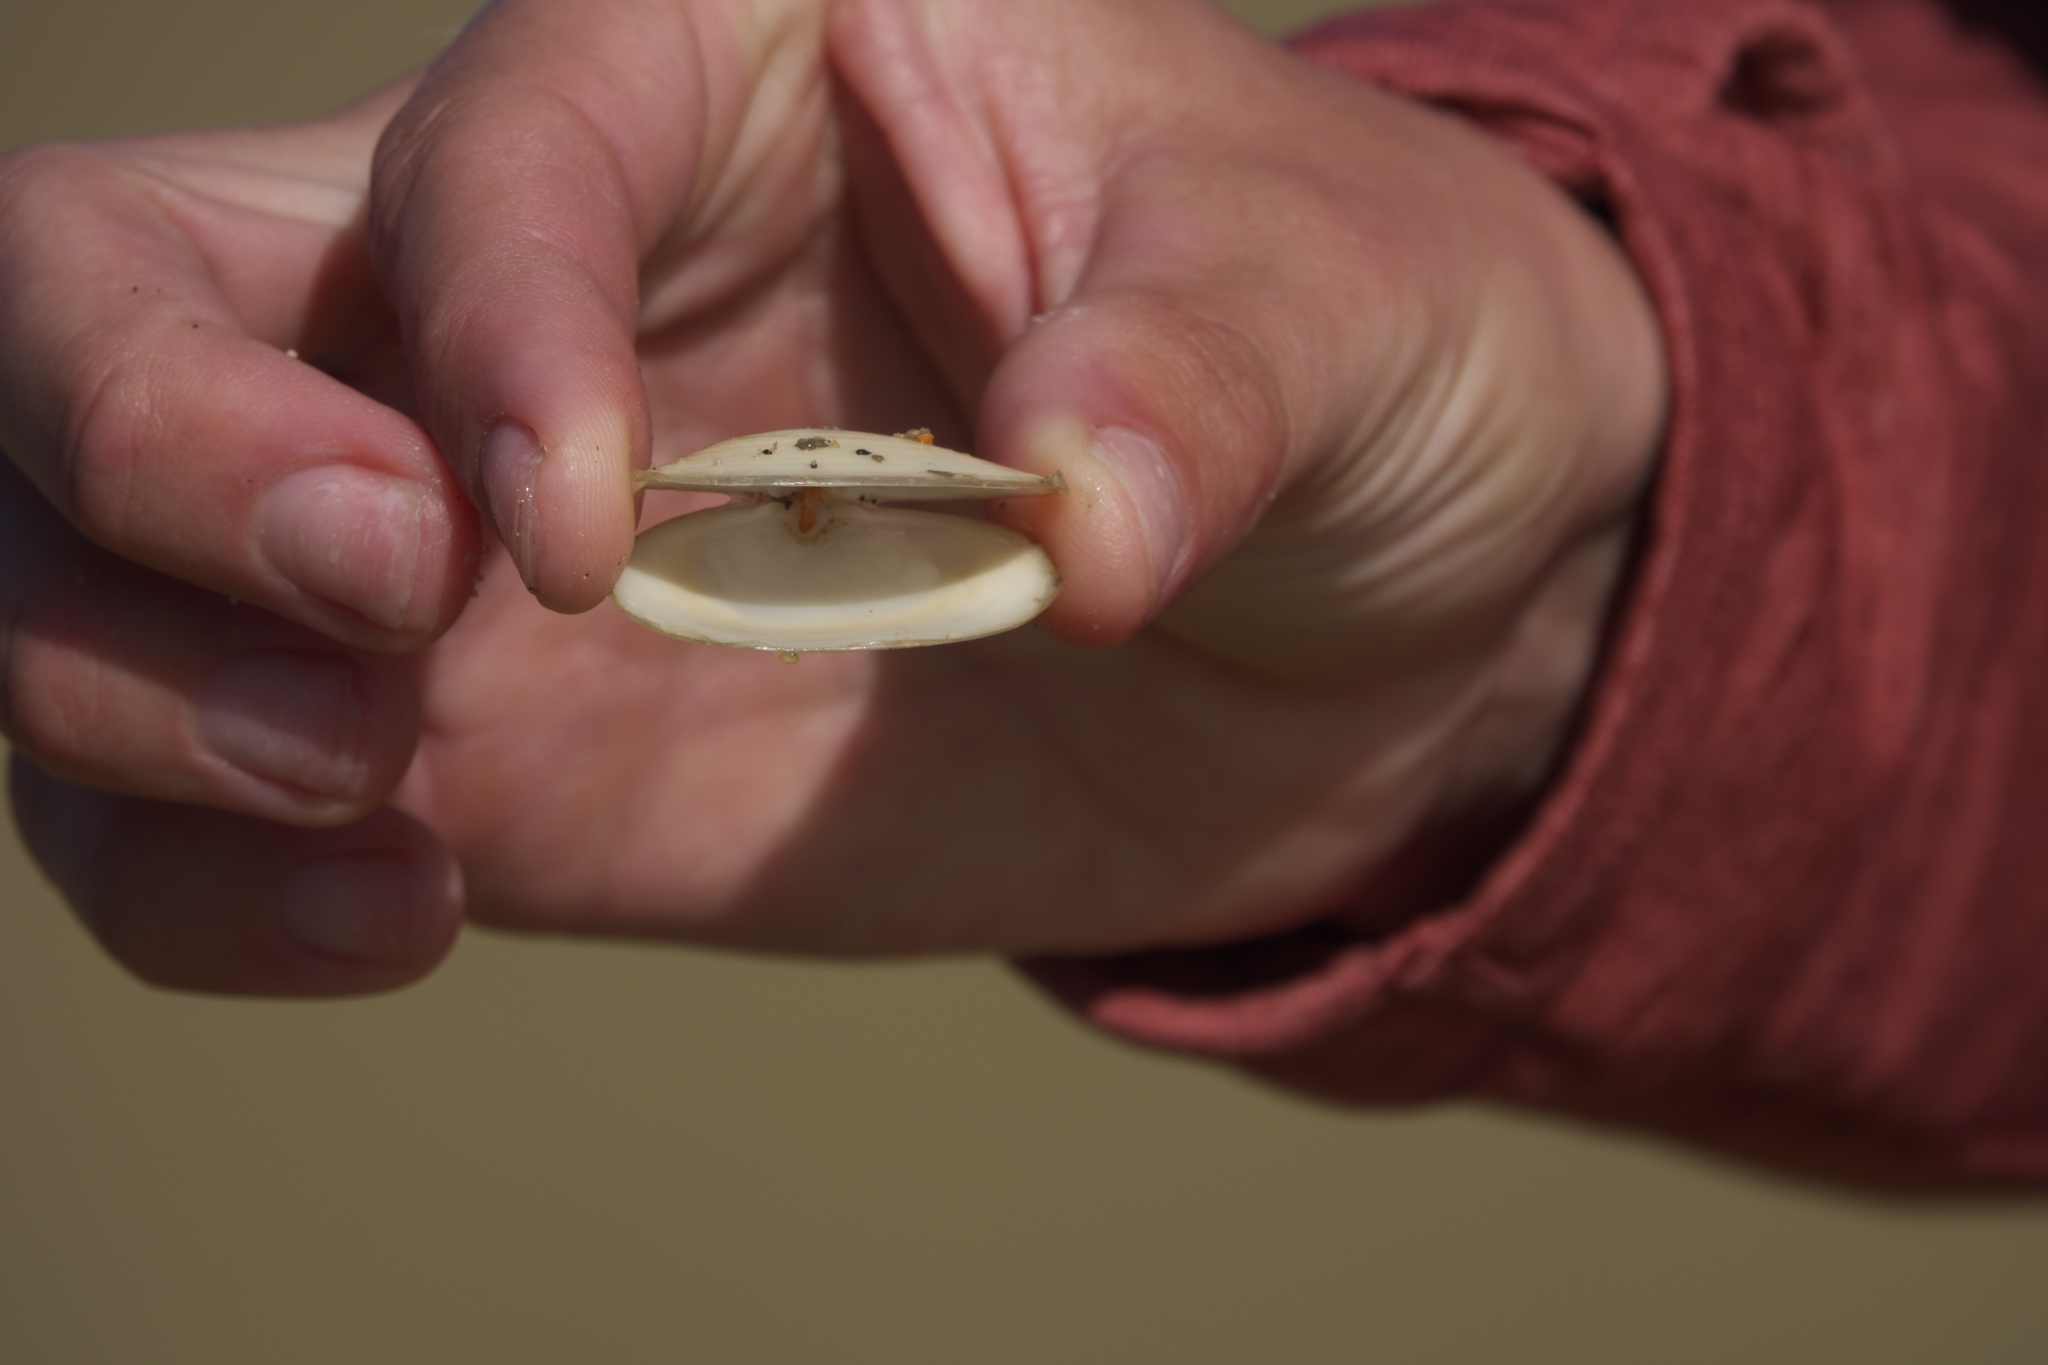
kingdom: Animalia
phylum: Mollusca
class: Bivalvia
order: Venerida
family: Mesodesmatidae
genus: Paphies
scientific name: Paphies australis
